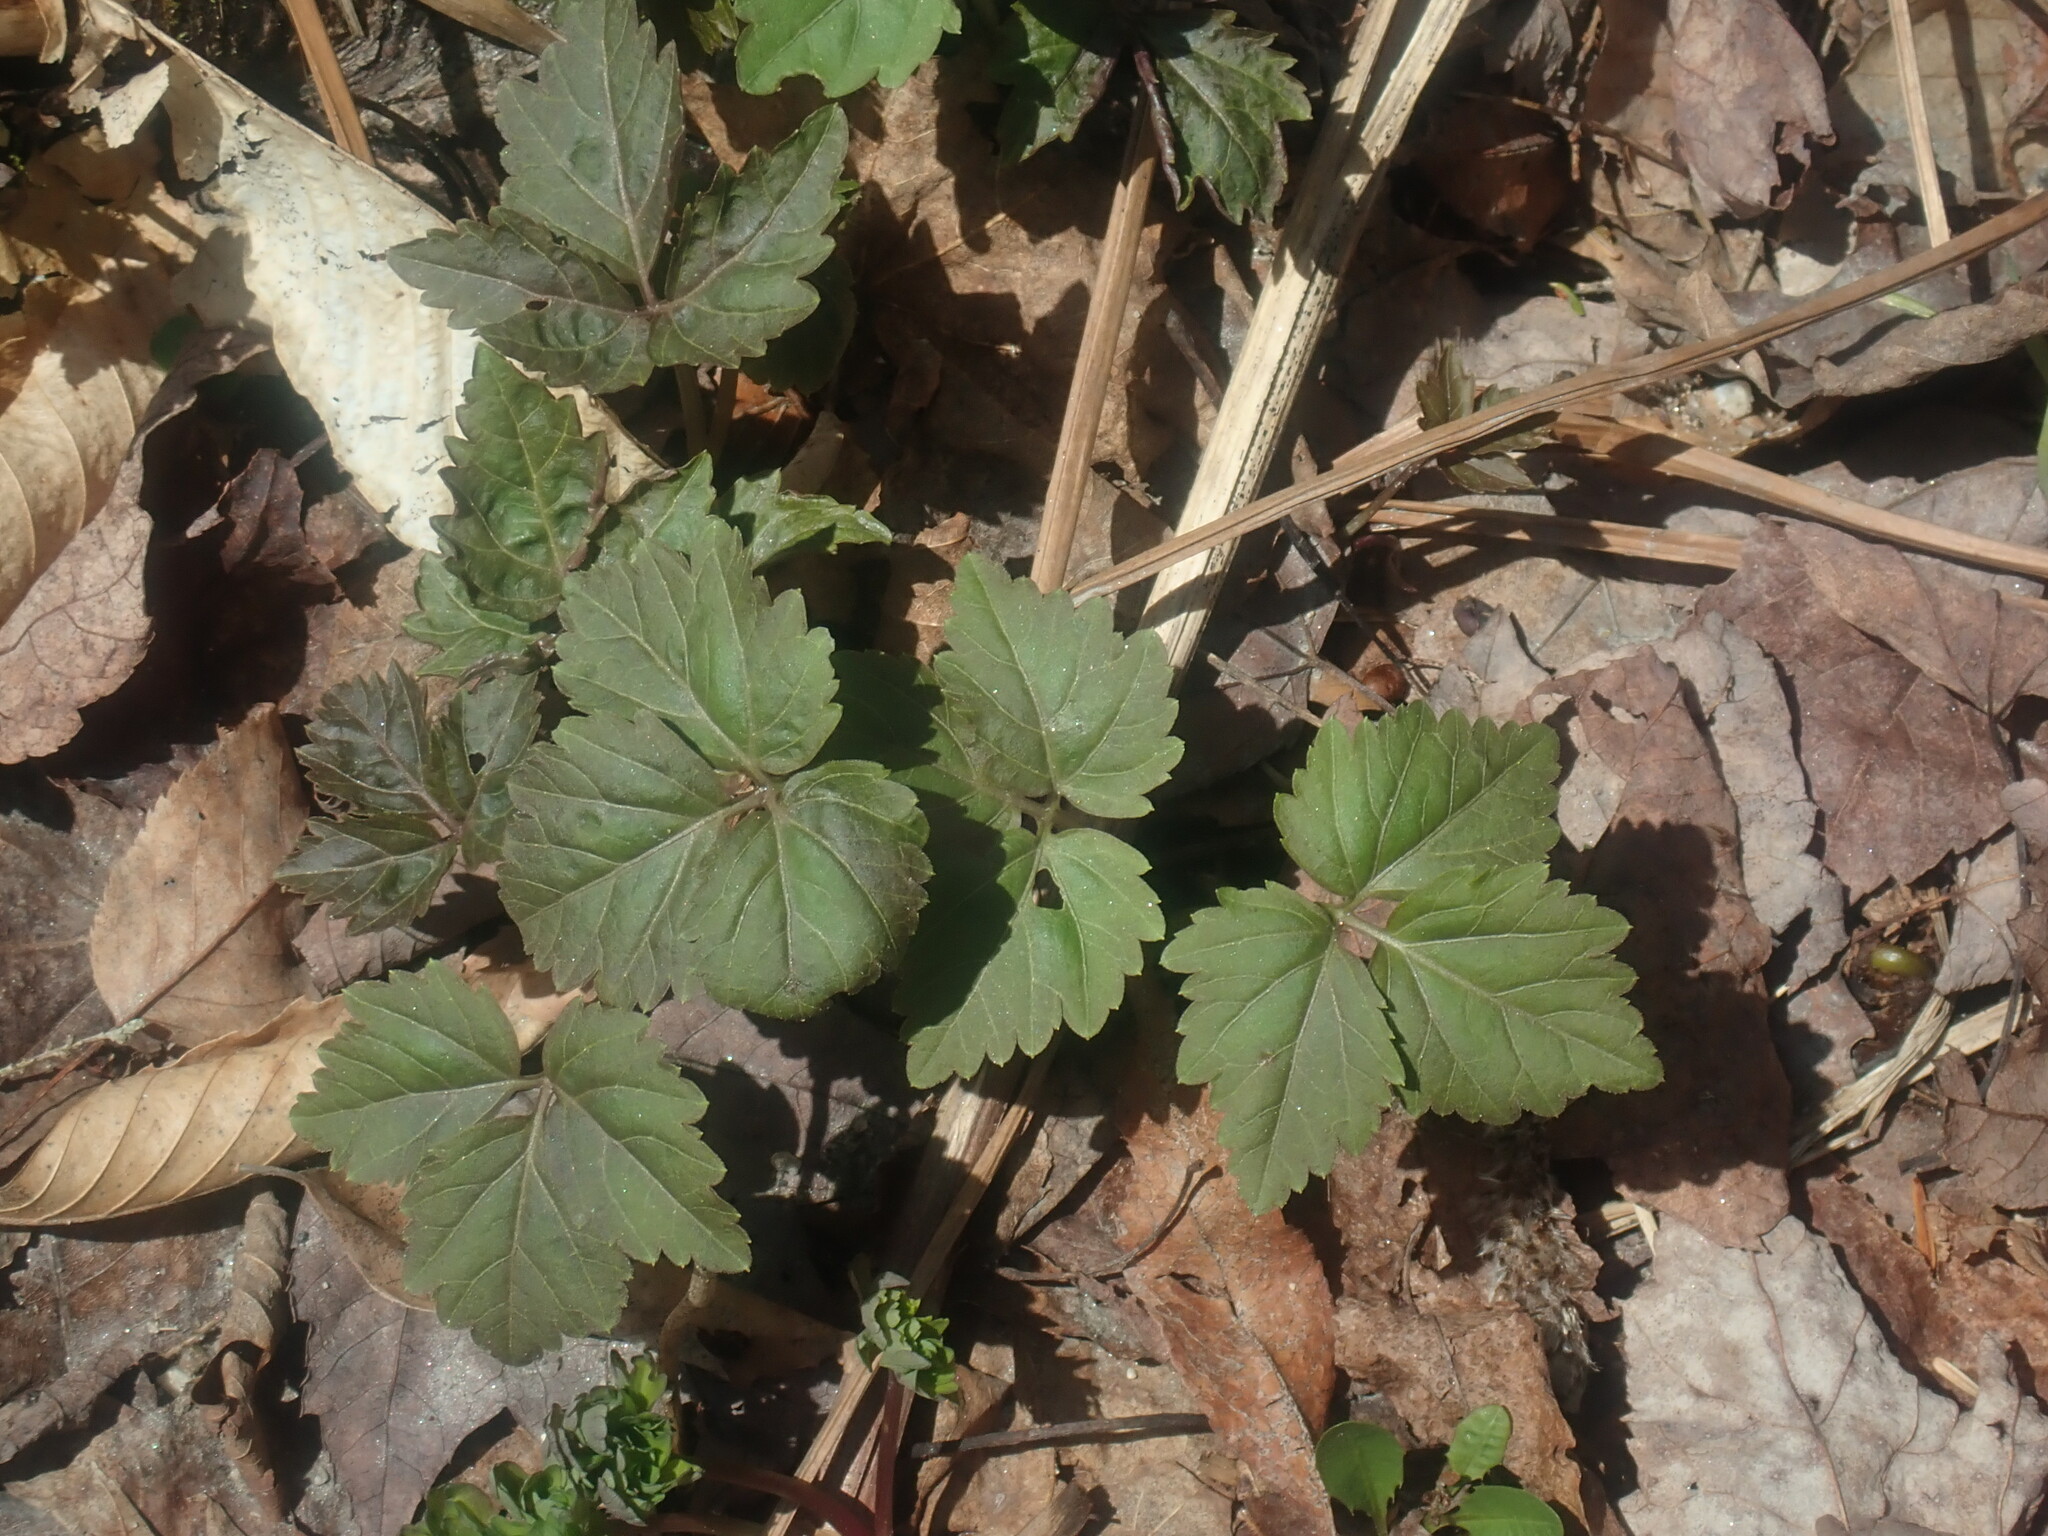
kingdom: Plantae
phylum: Tracheophyta
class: Magnoliopsida
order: Brassicales
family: Brassicaceae
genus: Cardamine
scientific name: Cardamine diphylla
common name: Broad-leaved toothwort
